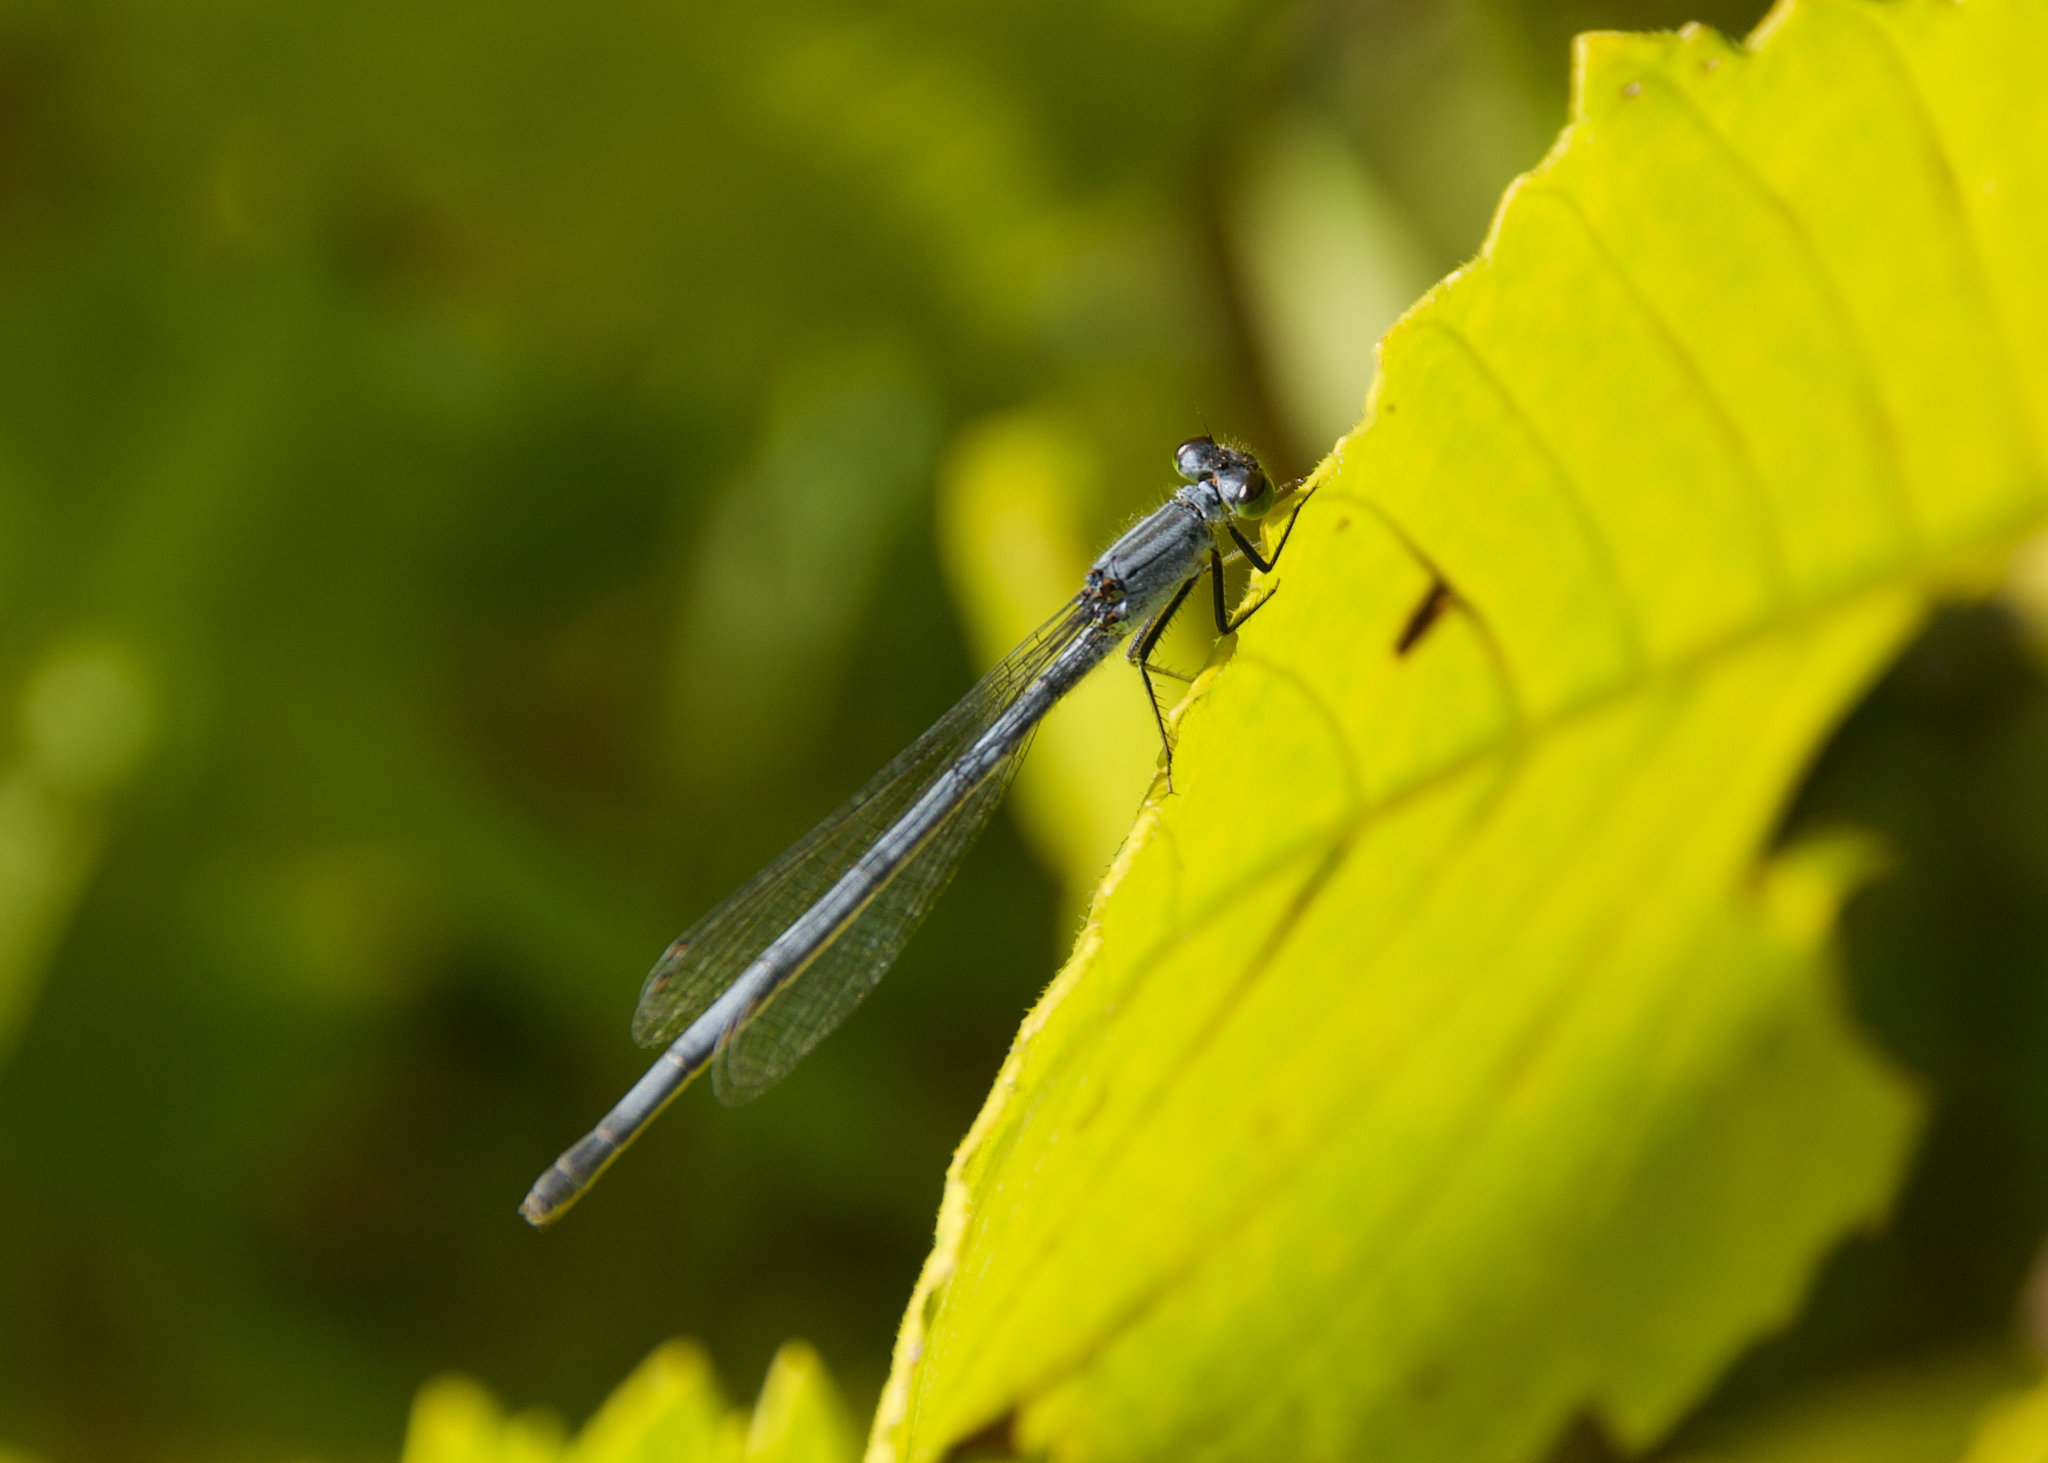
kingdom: Animalia
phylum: Arthropoda
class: Insecta
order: Odonata
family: Coenagrionidae
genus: Ischnura
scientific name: Ischnura verticalis
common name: Eastern forktail
